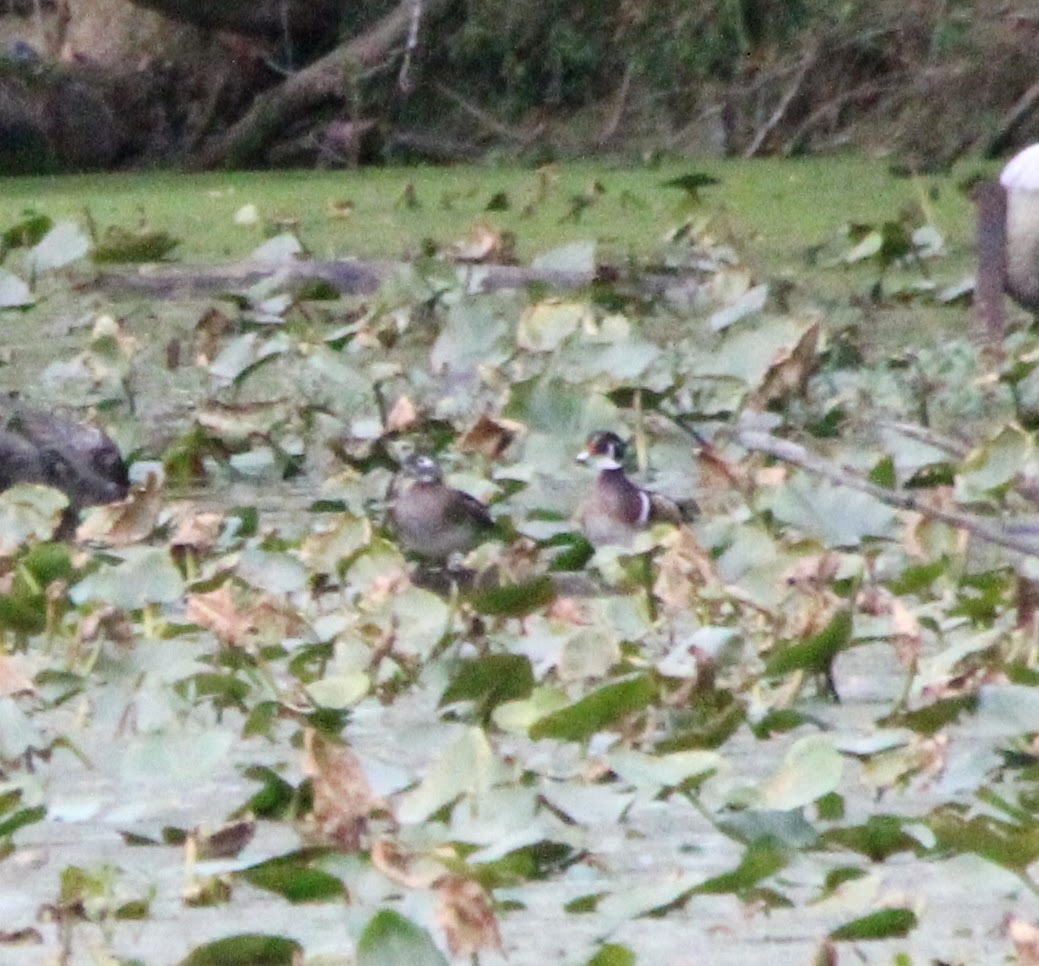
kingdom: Animalia
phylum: Chordata
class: Aves
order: Anseriformes
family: Anatidae
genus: Aix
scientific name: Aix sponsa
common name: Wood duck
